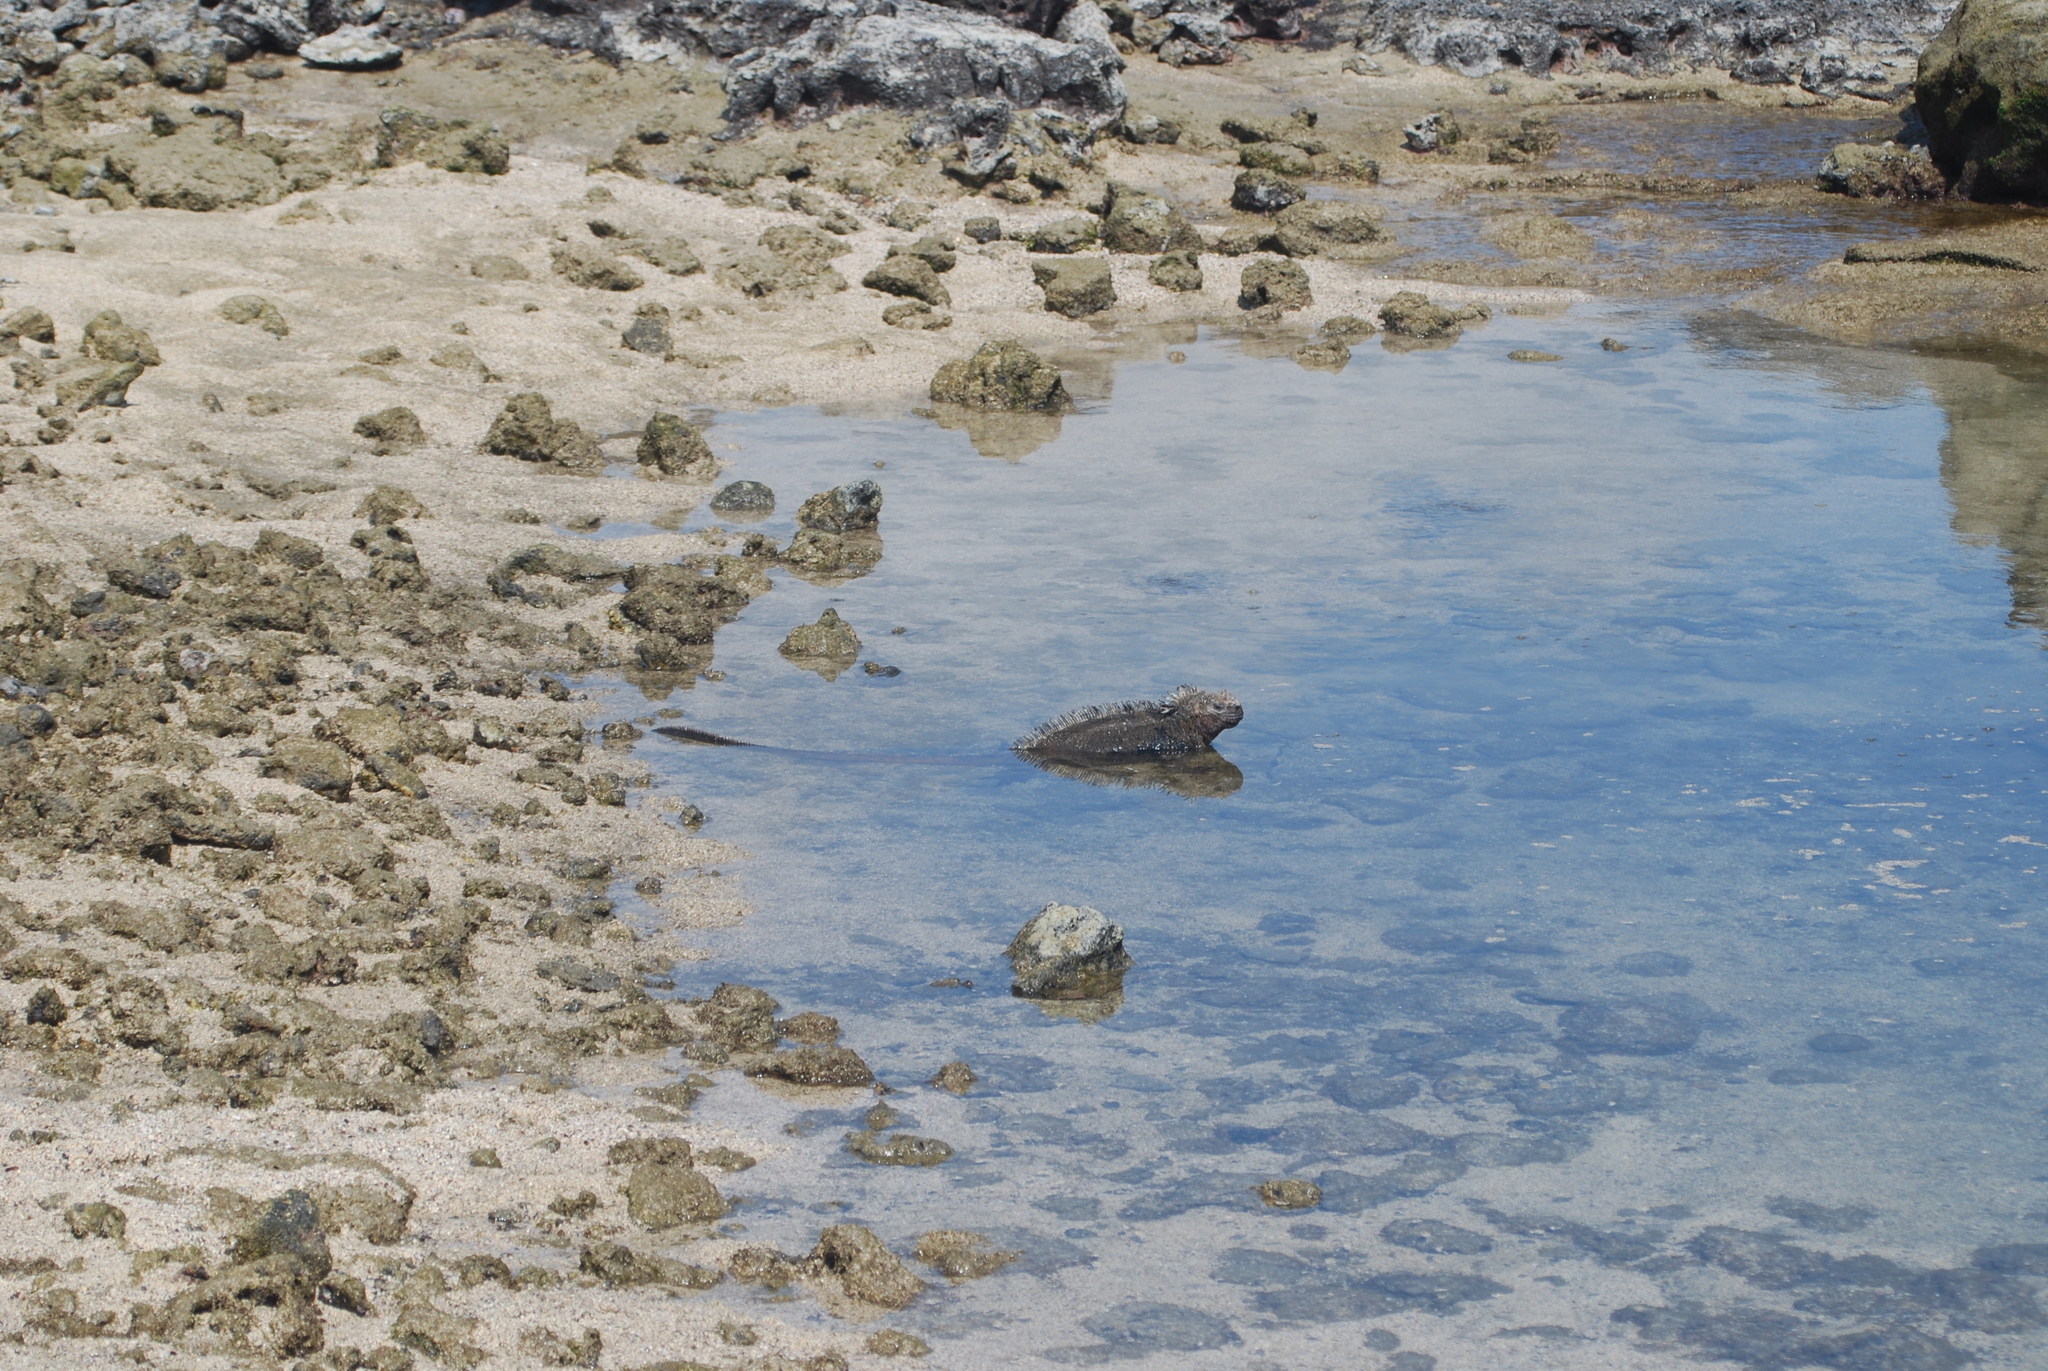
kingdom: Animalia
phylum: Chordata
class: Squamata
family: Iguanidae
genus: Amblyrhynchus
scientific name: Amblyrhynchus cristatus
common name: Marine iguana
